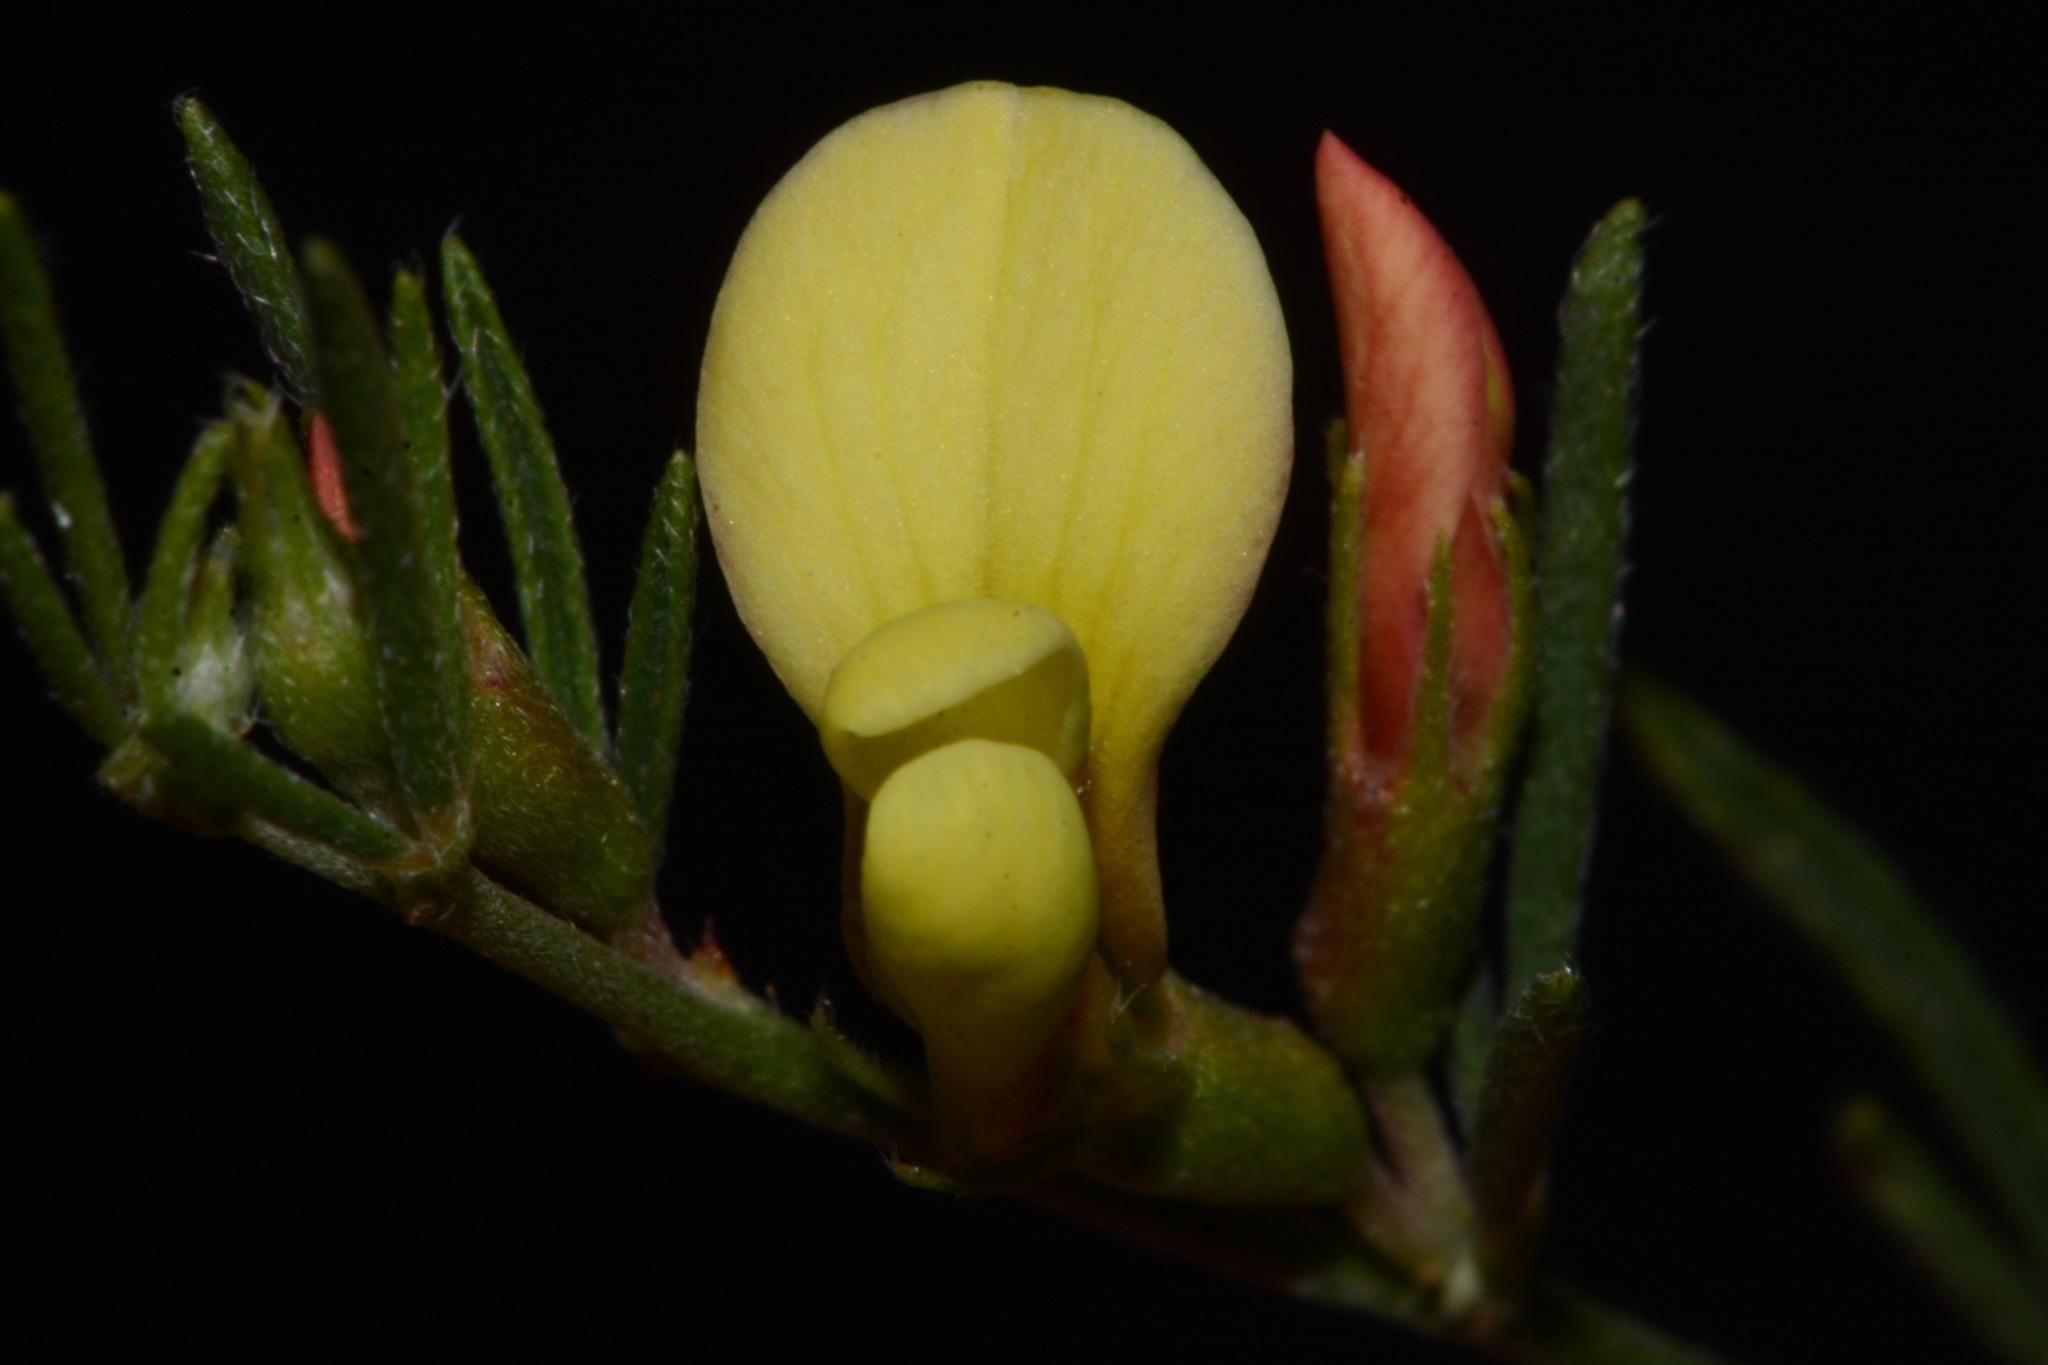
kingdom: Plantae
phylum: Tracheophyta
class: Magnoliopsida
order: Fabales
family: Fabaceae
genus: Acmispon
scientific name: Acmispon wrightii
